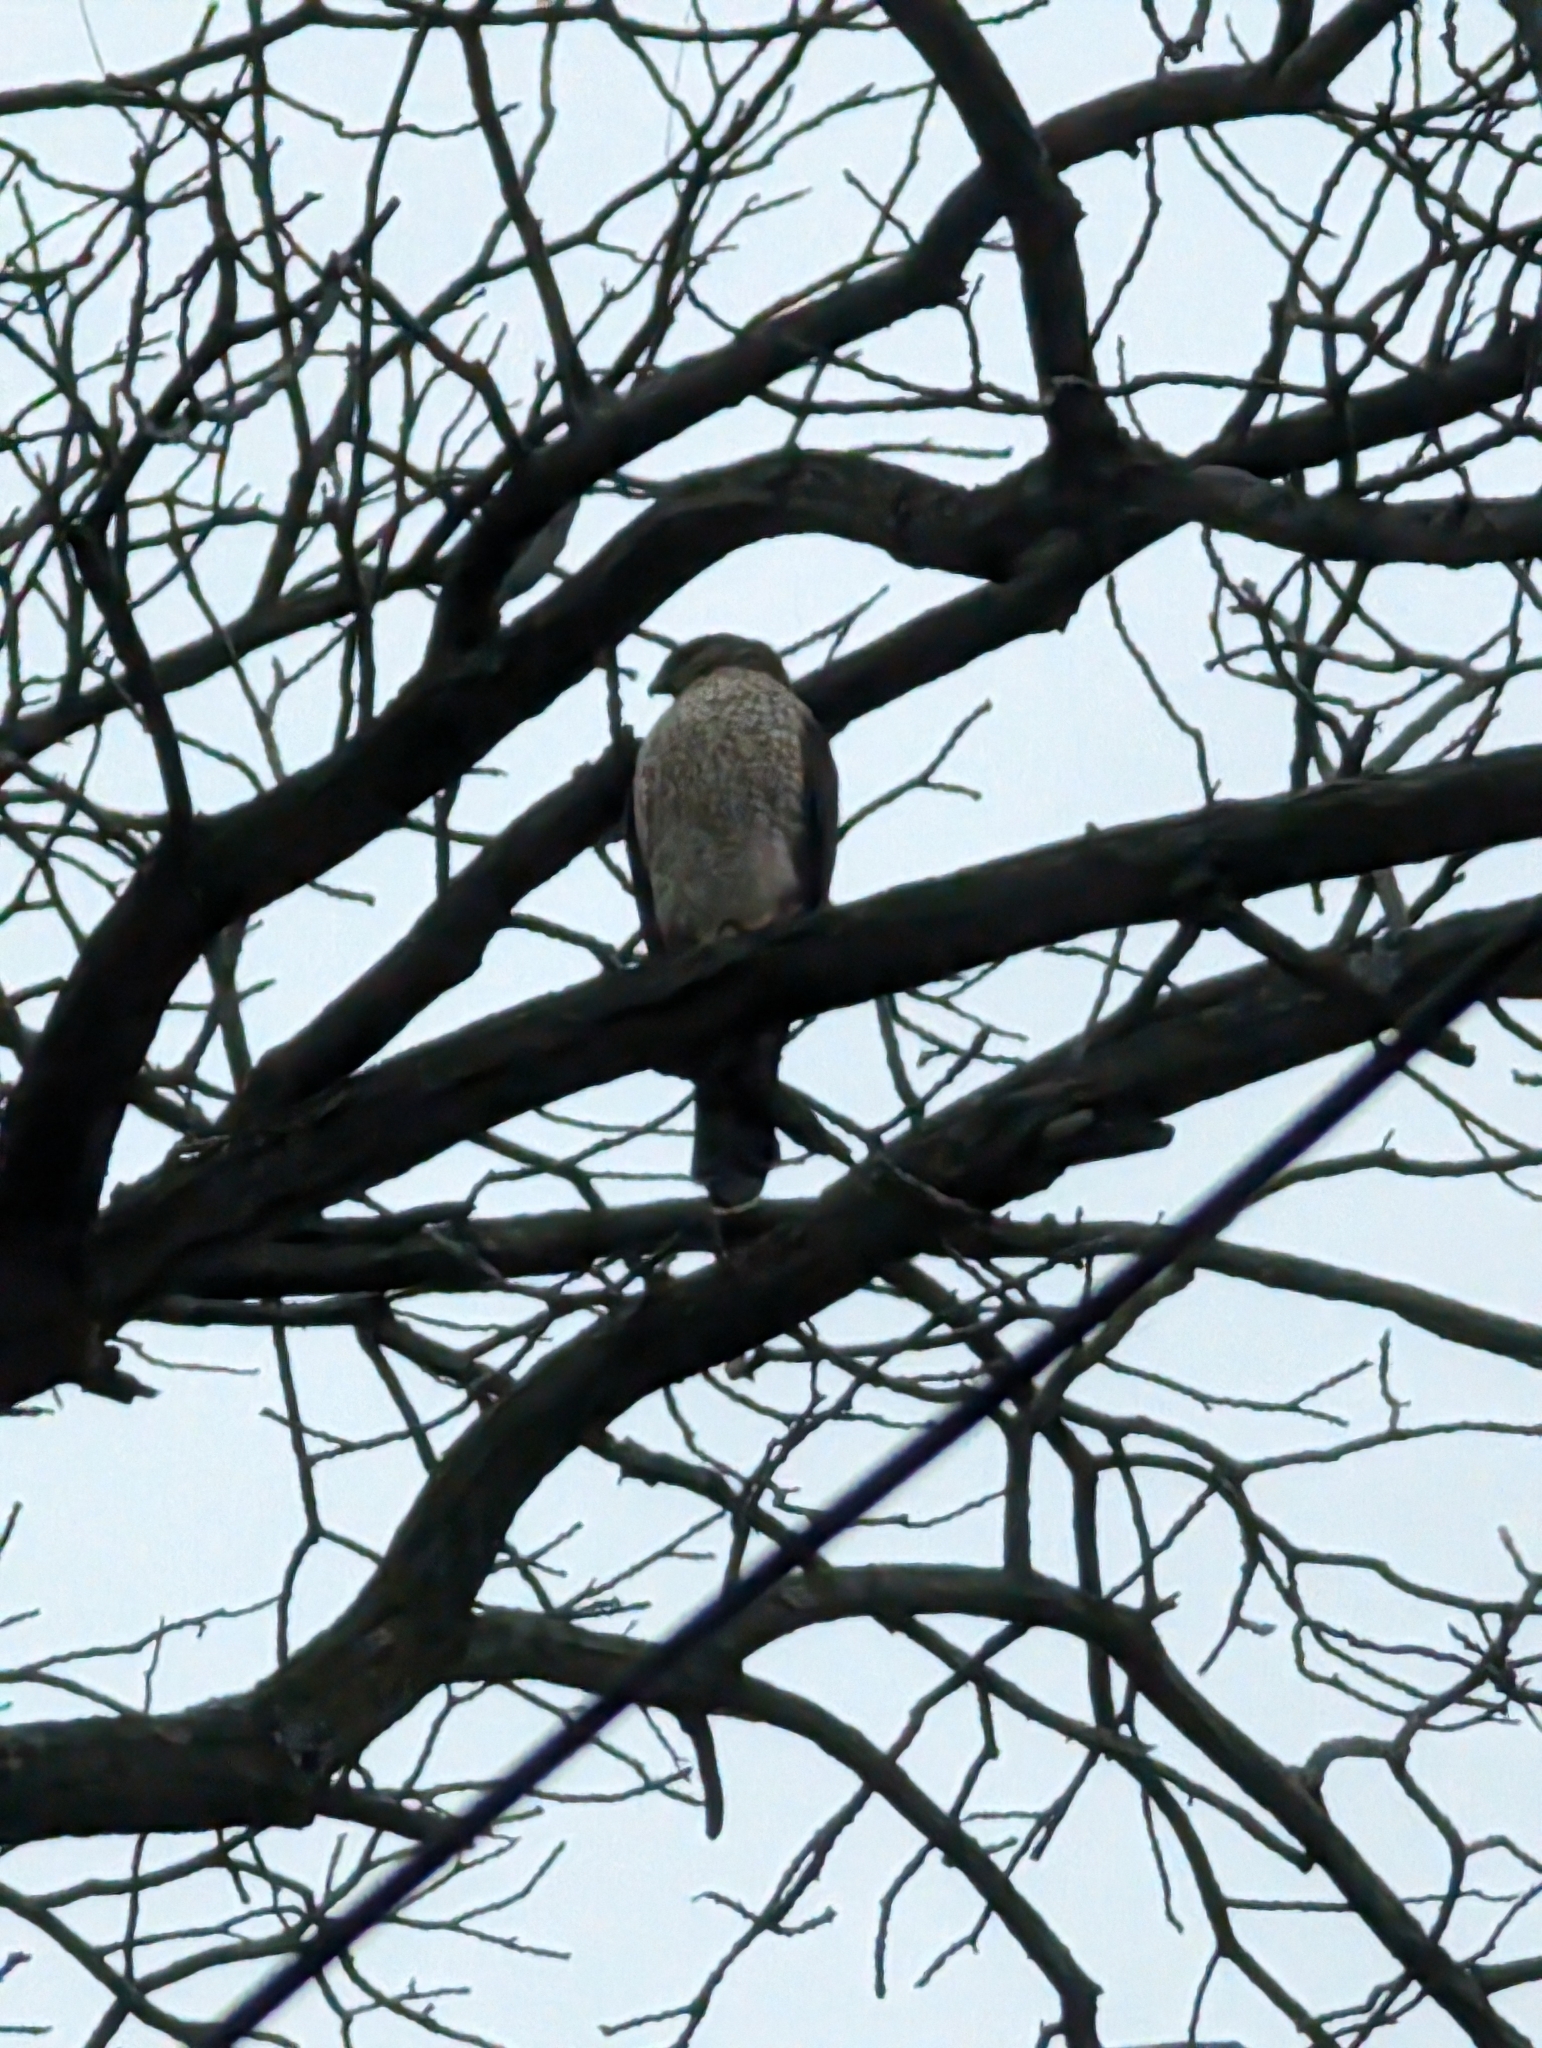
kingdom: Animalia
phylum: Chordata
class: Aves
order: Accipitriformes
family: Accipitridae
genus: Accipiter
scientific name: Accipiter cooperii
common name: Cooper's hawk
